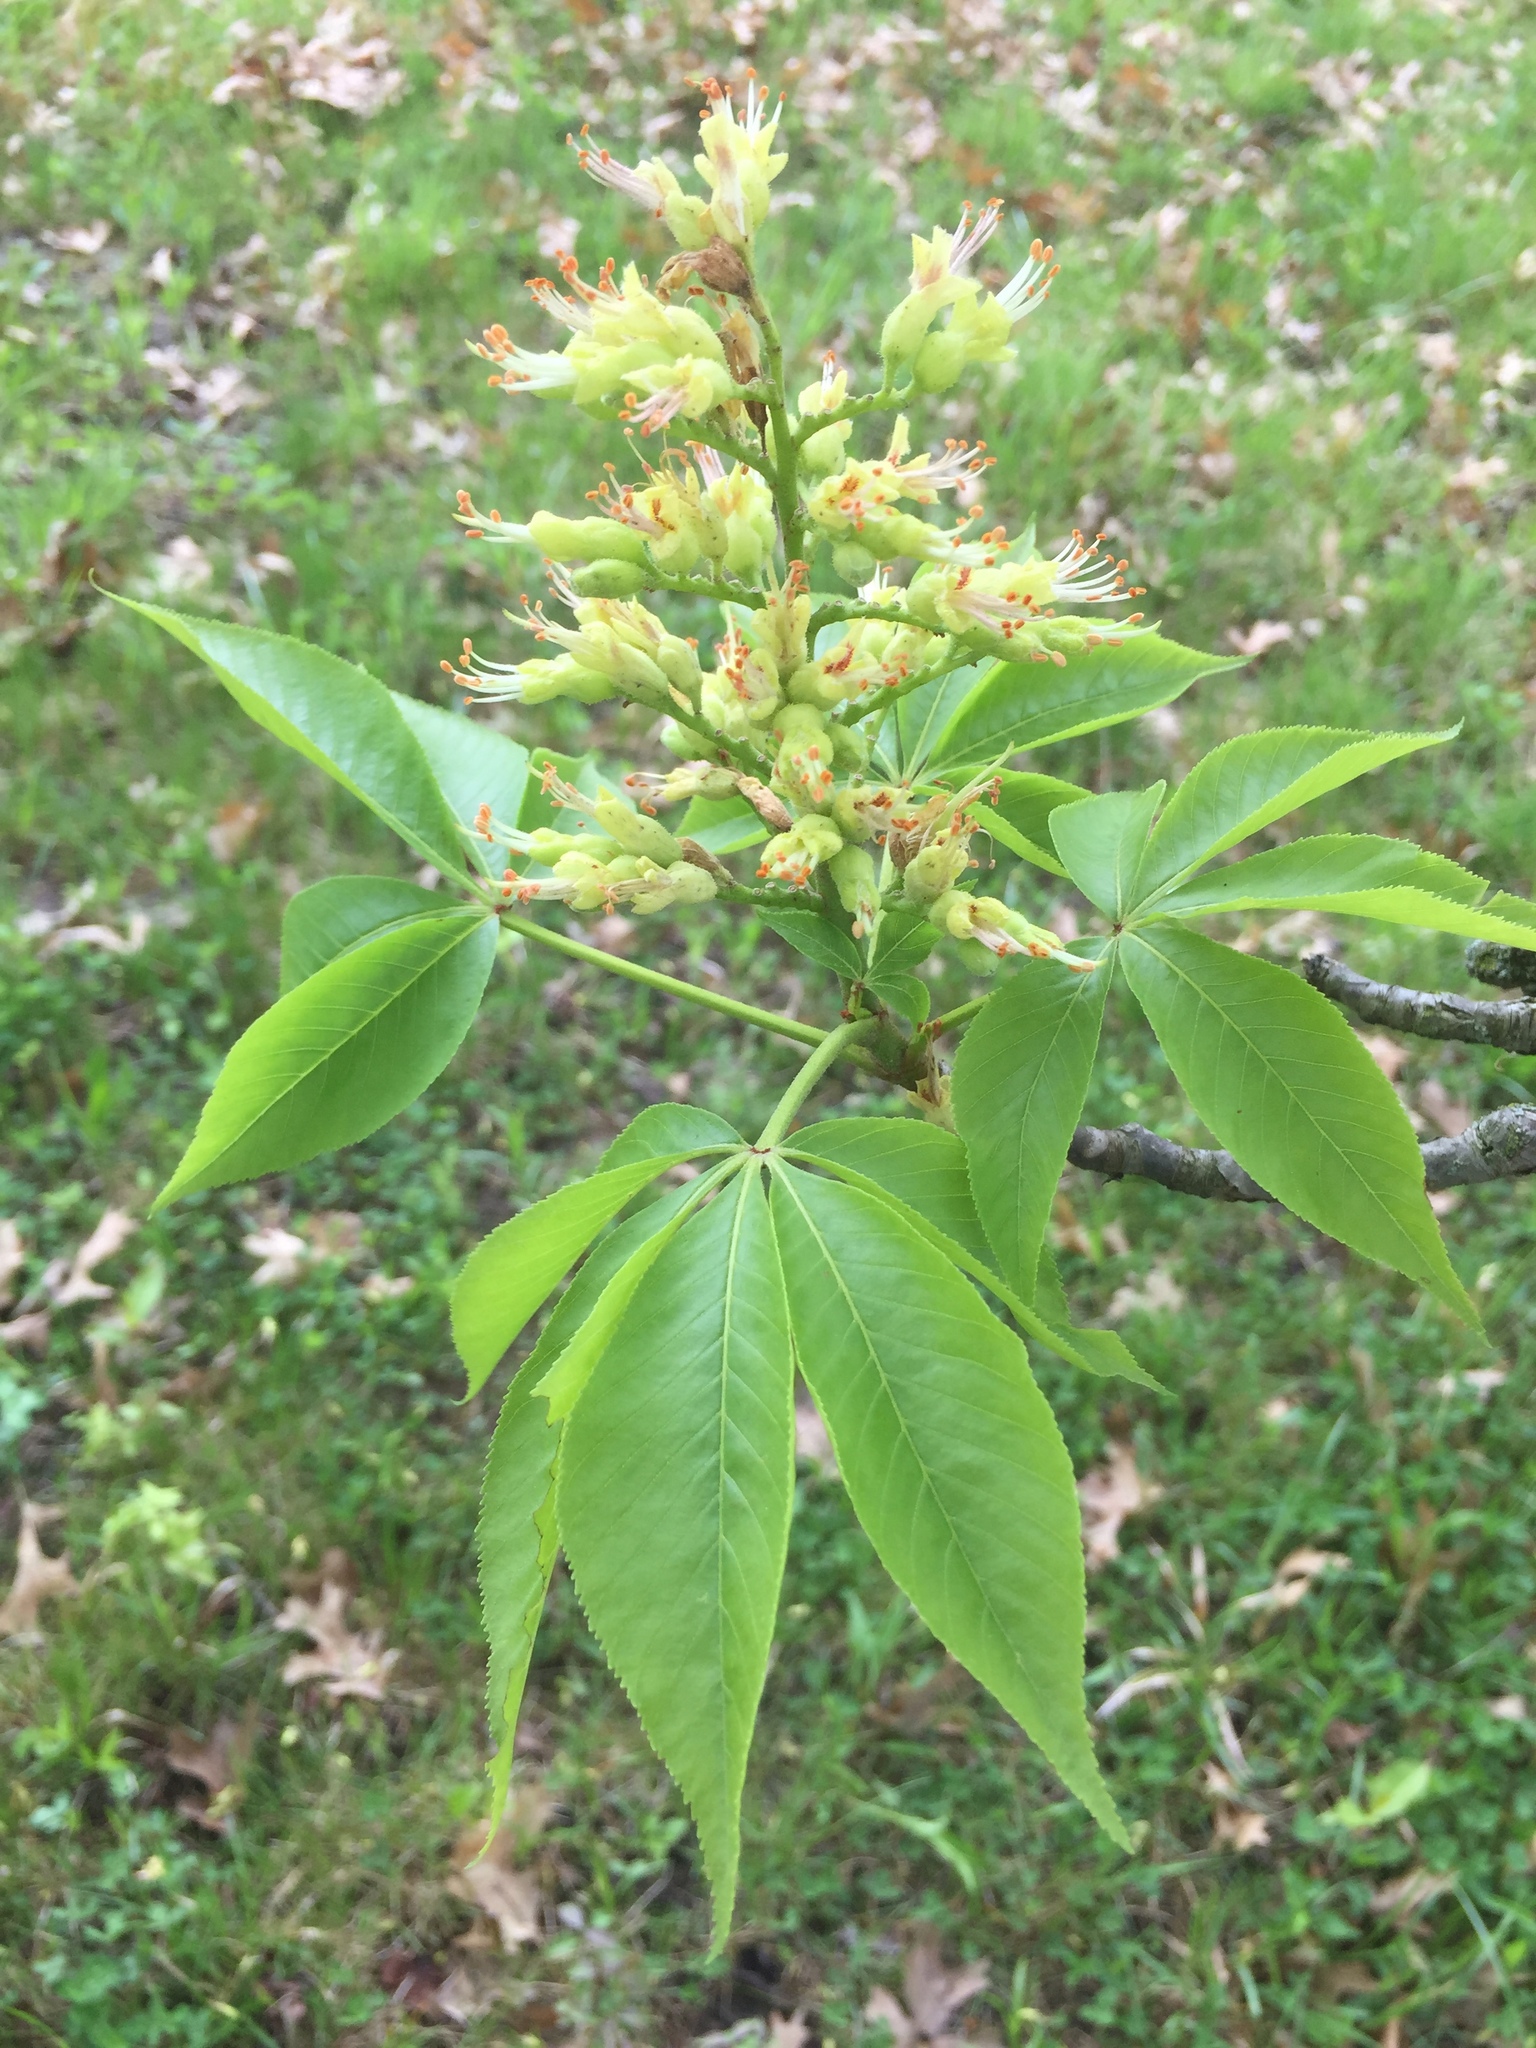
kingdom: Plantae
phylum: Tracheophyta
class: Magnoliopsida
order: Sapindales
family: Sapindaceae
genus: Aesculus
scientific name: Aesculus glabra
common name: Ohio buckeye
